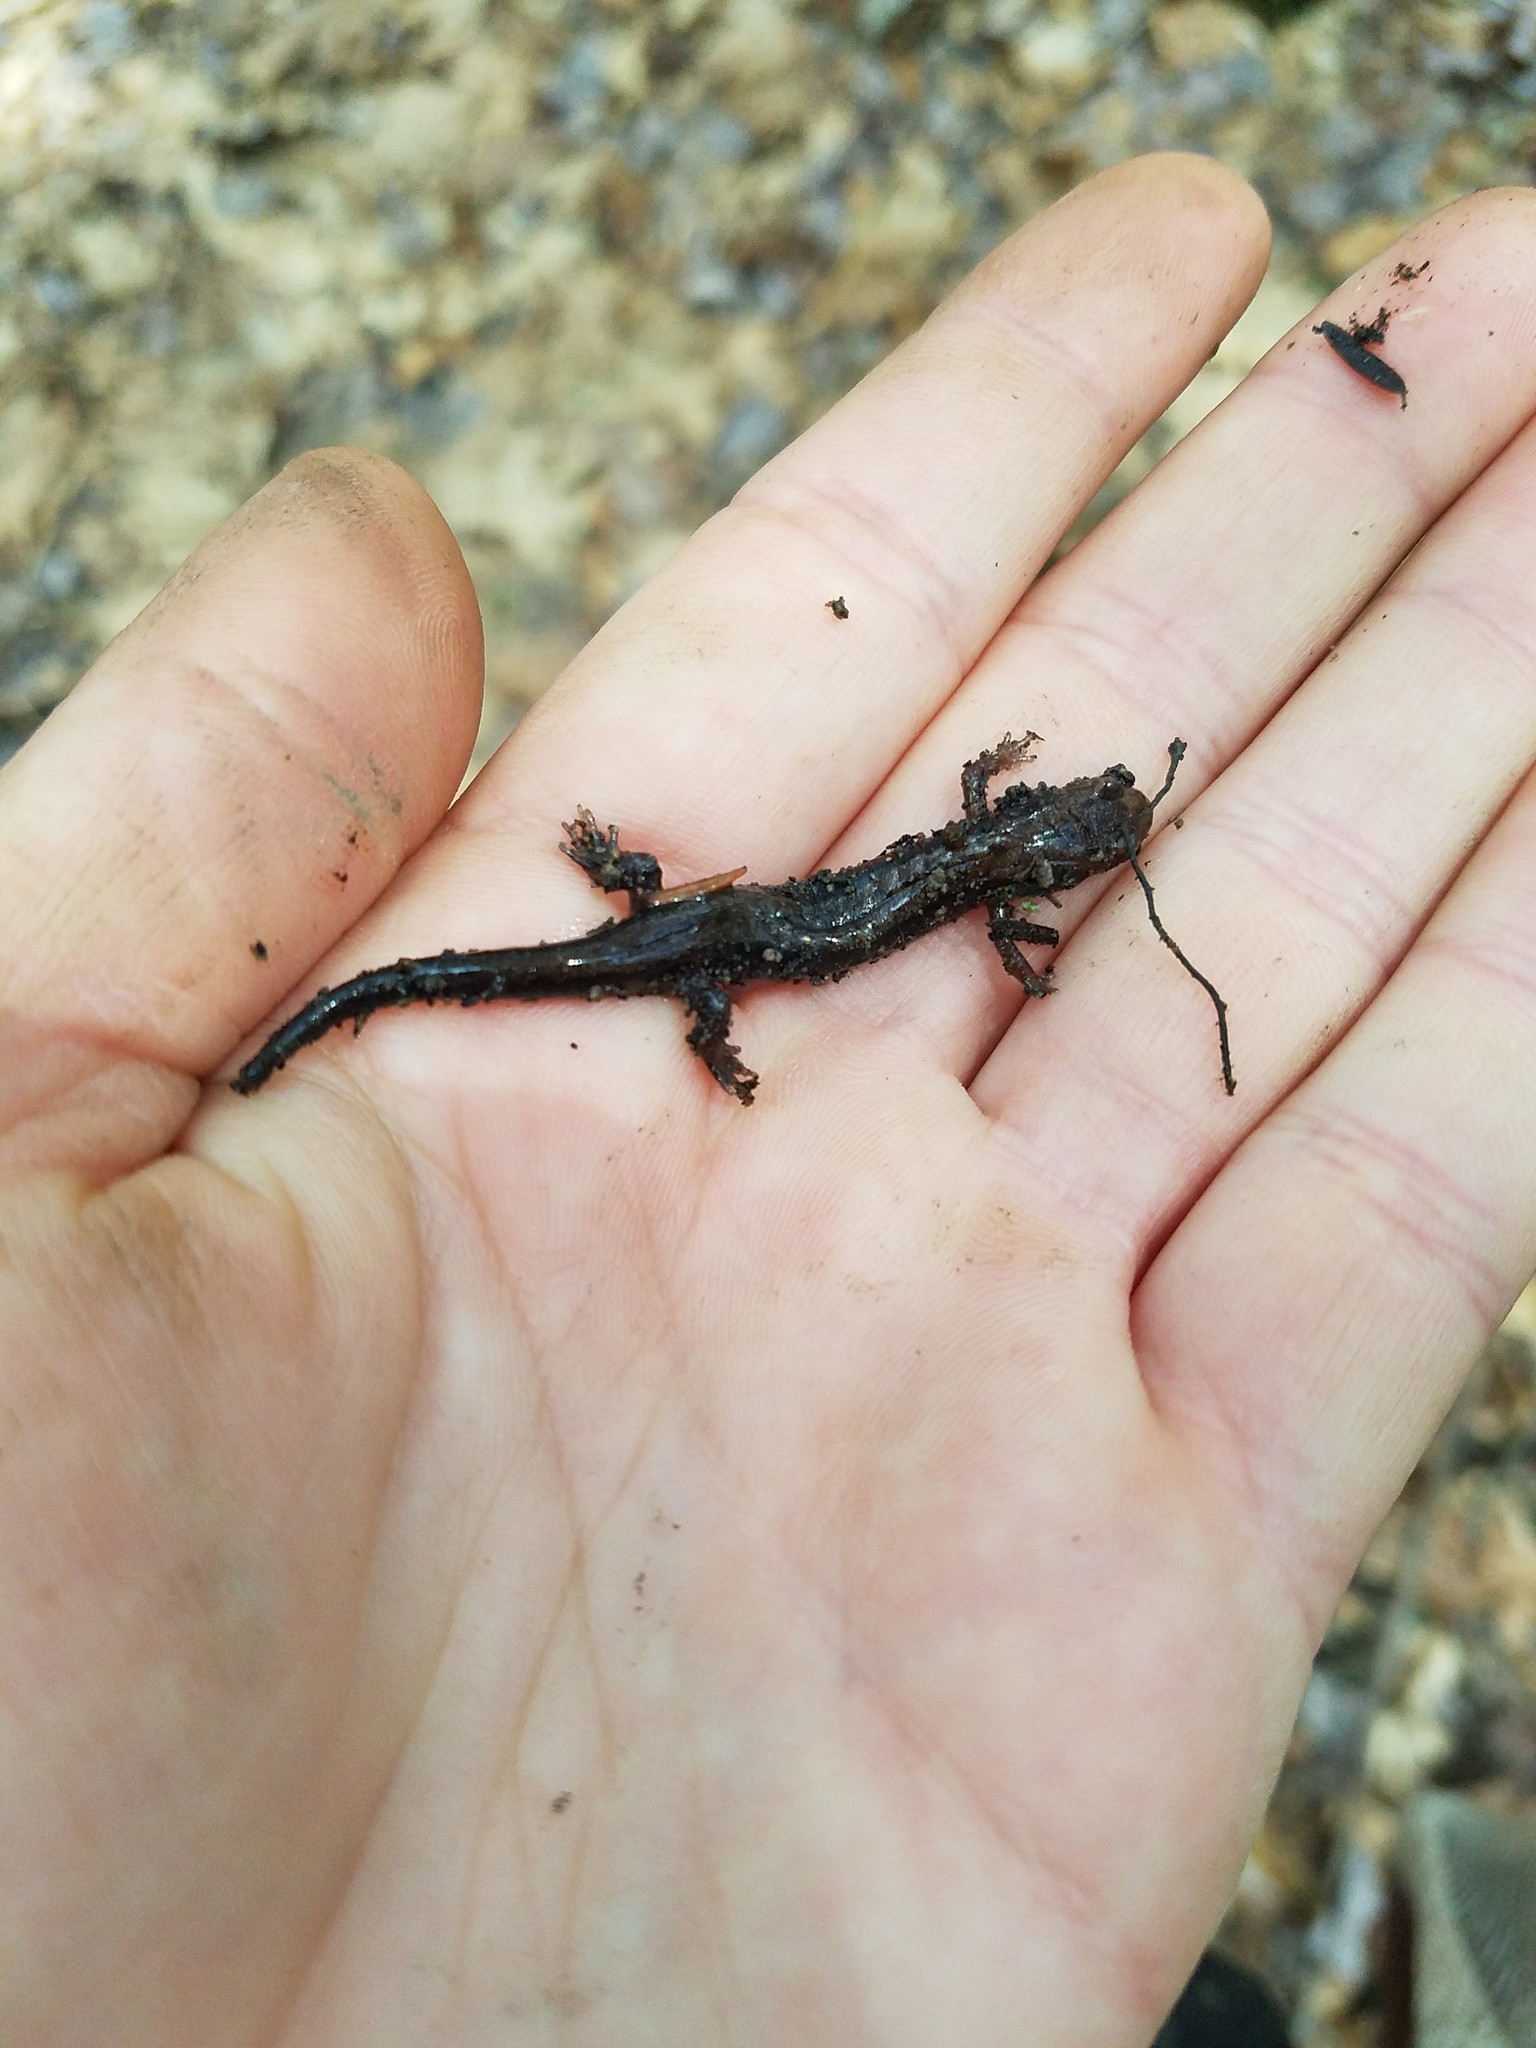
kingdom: Animalia
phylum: Chordata
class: Amphibia
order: Caudata
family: Plethodontidae
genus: Desmognathus
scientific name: Desmognathus ochrophaeus
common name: Allegheny mountain dusky salamander
